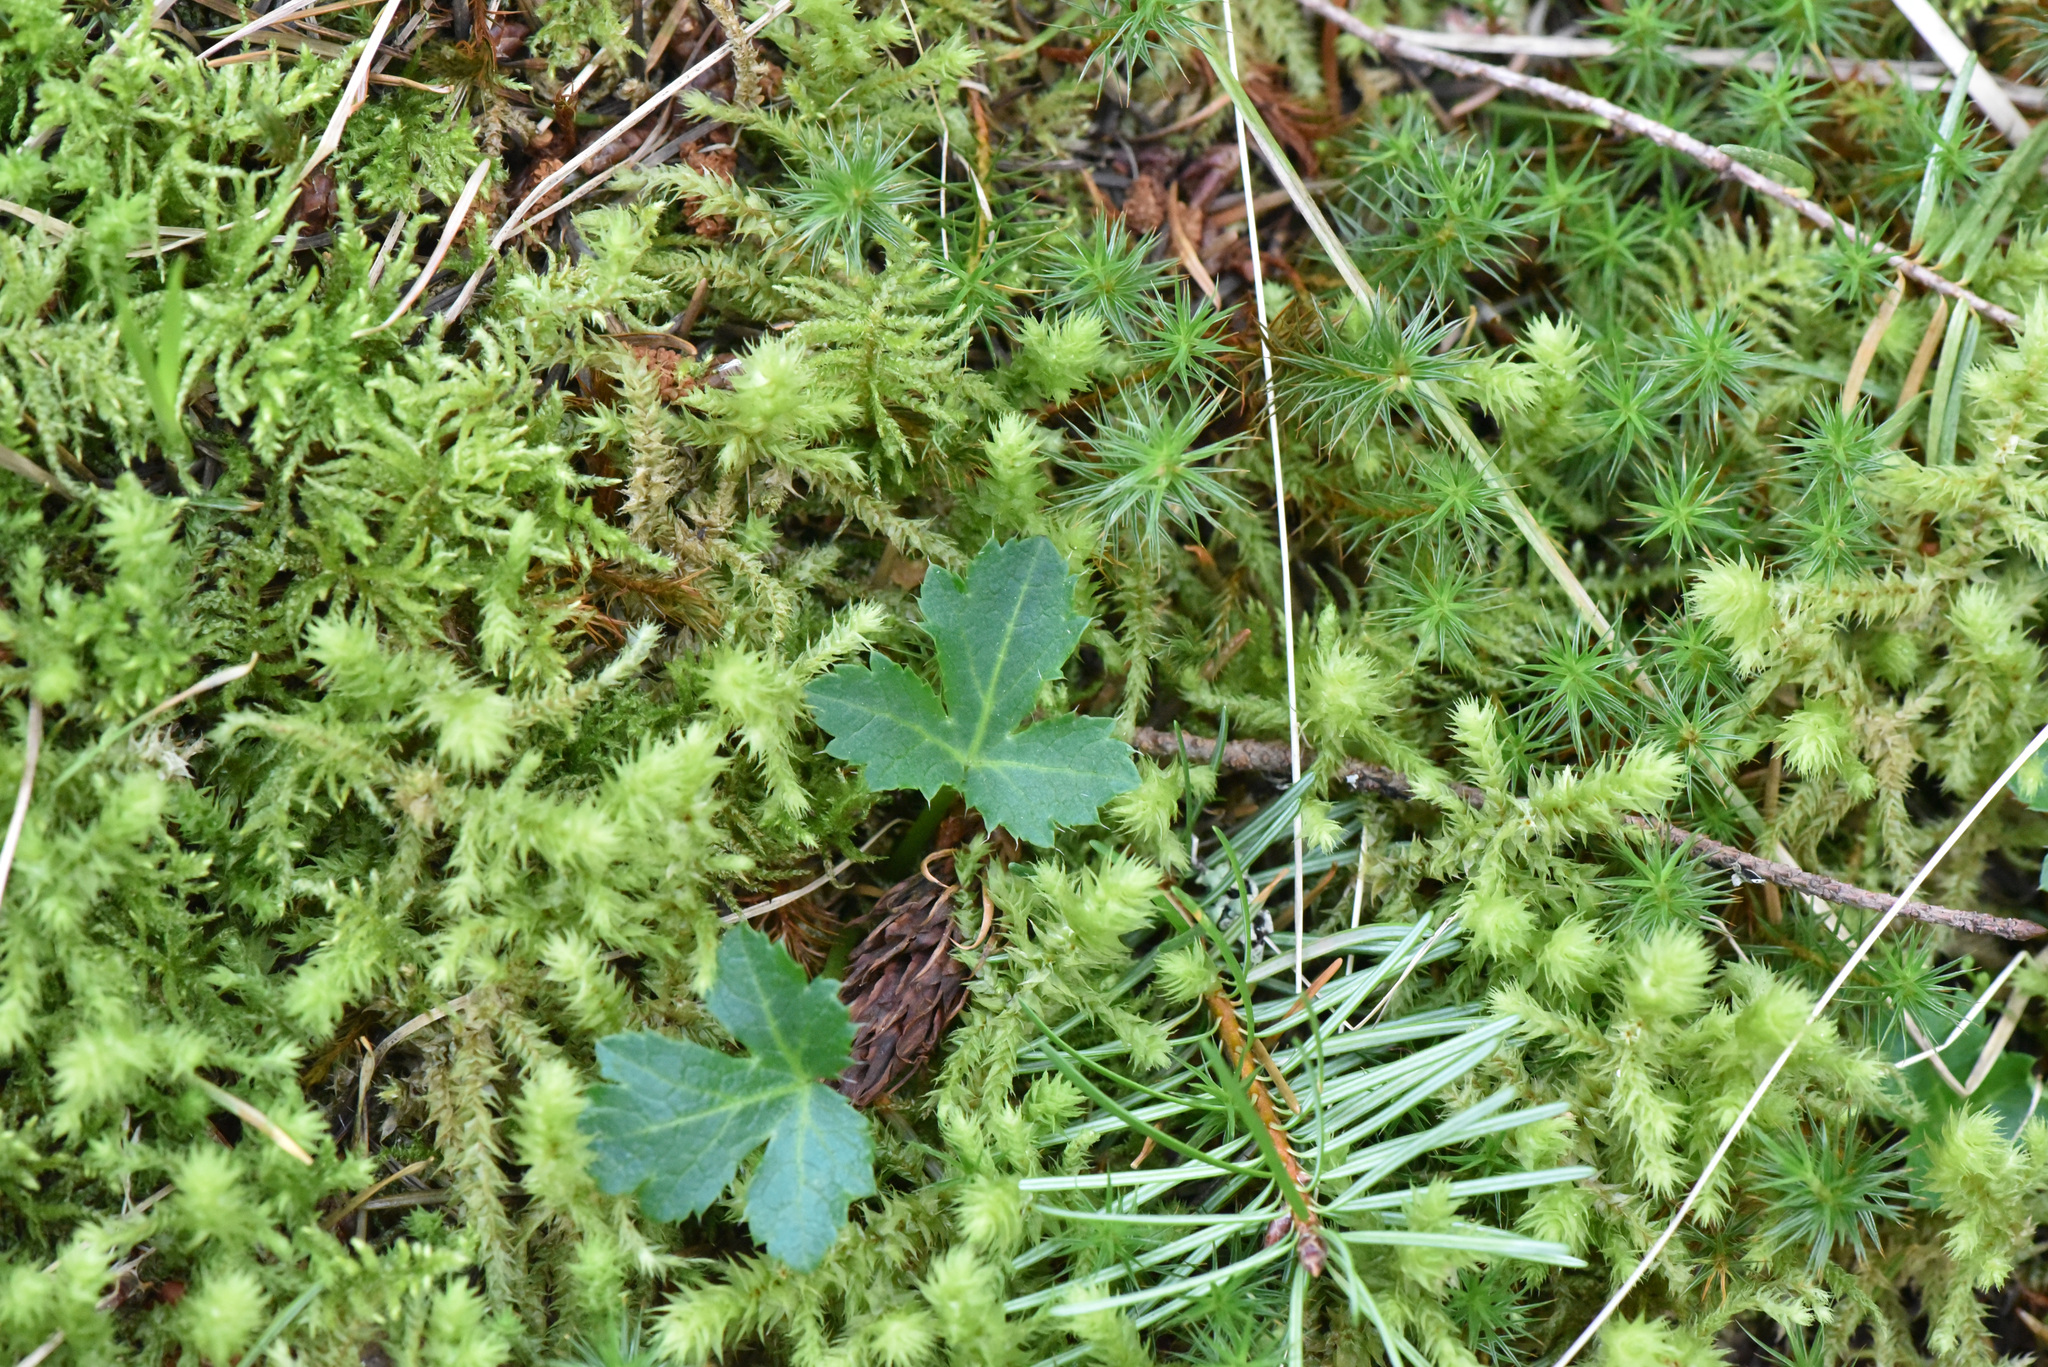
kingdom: Plantae
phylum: Tracheophyta
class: Magnoliopsida
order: Apiales
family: Apiaceae
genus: Sanicula
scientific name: Sanicula crassicaulis
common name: Western snakeroot
